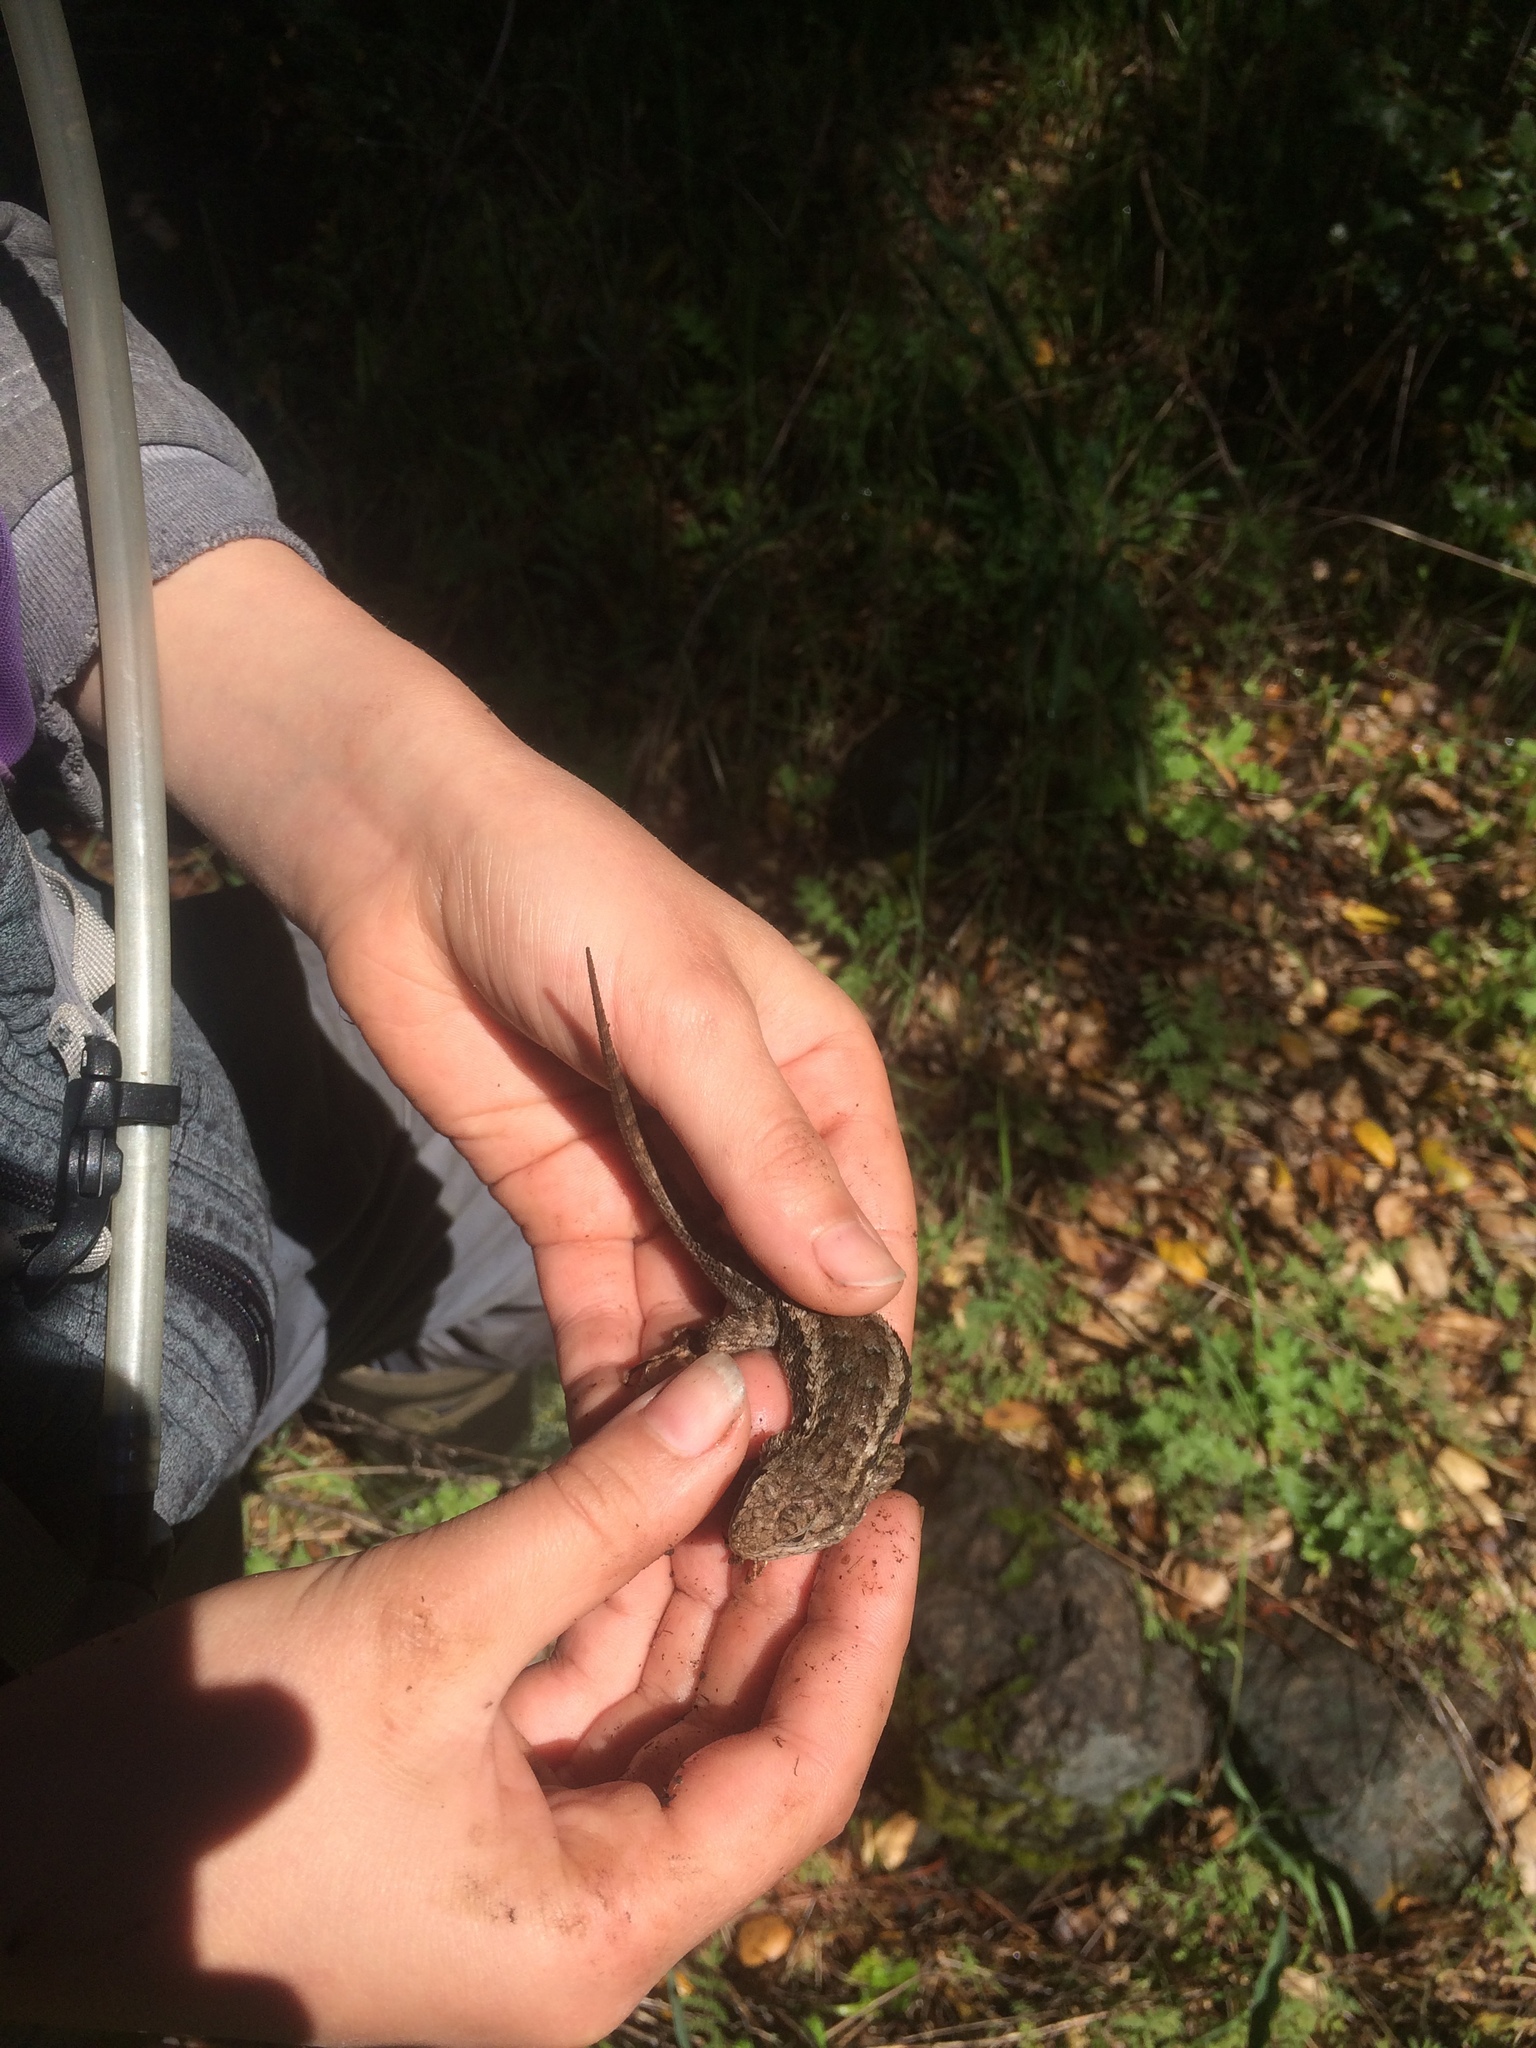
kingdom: Animalia
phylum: Chordata
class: Squamata
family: Phrynosomatidae
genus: Sceloporus
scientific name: Sceloporus occidentalis
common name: Western fence lizard
